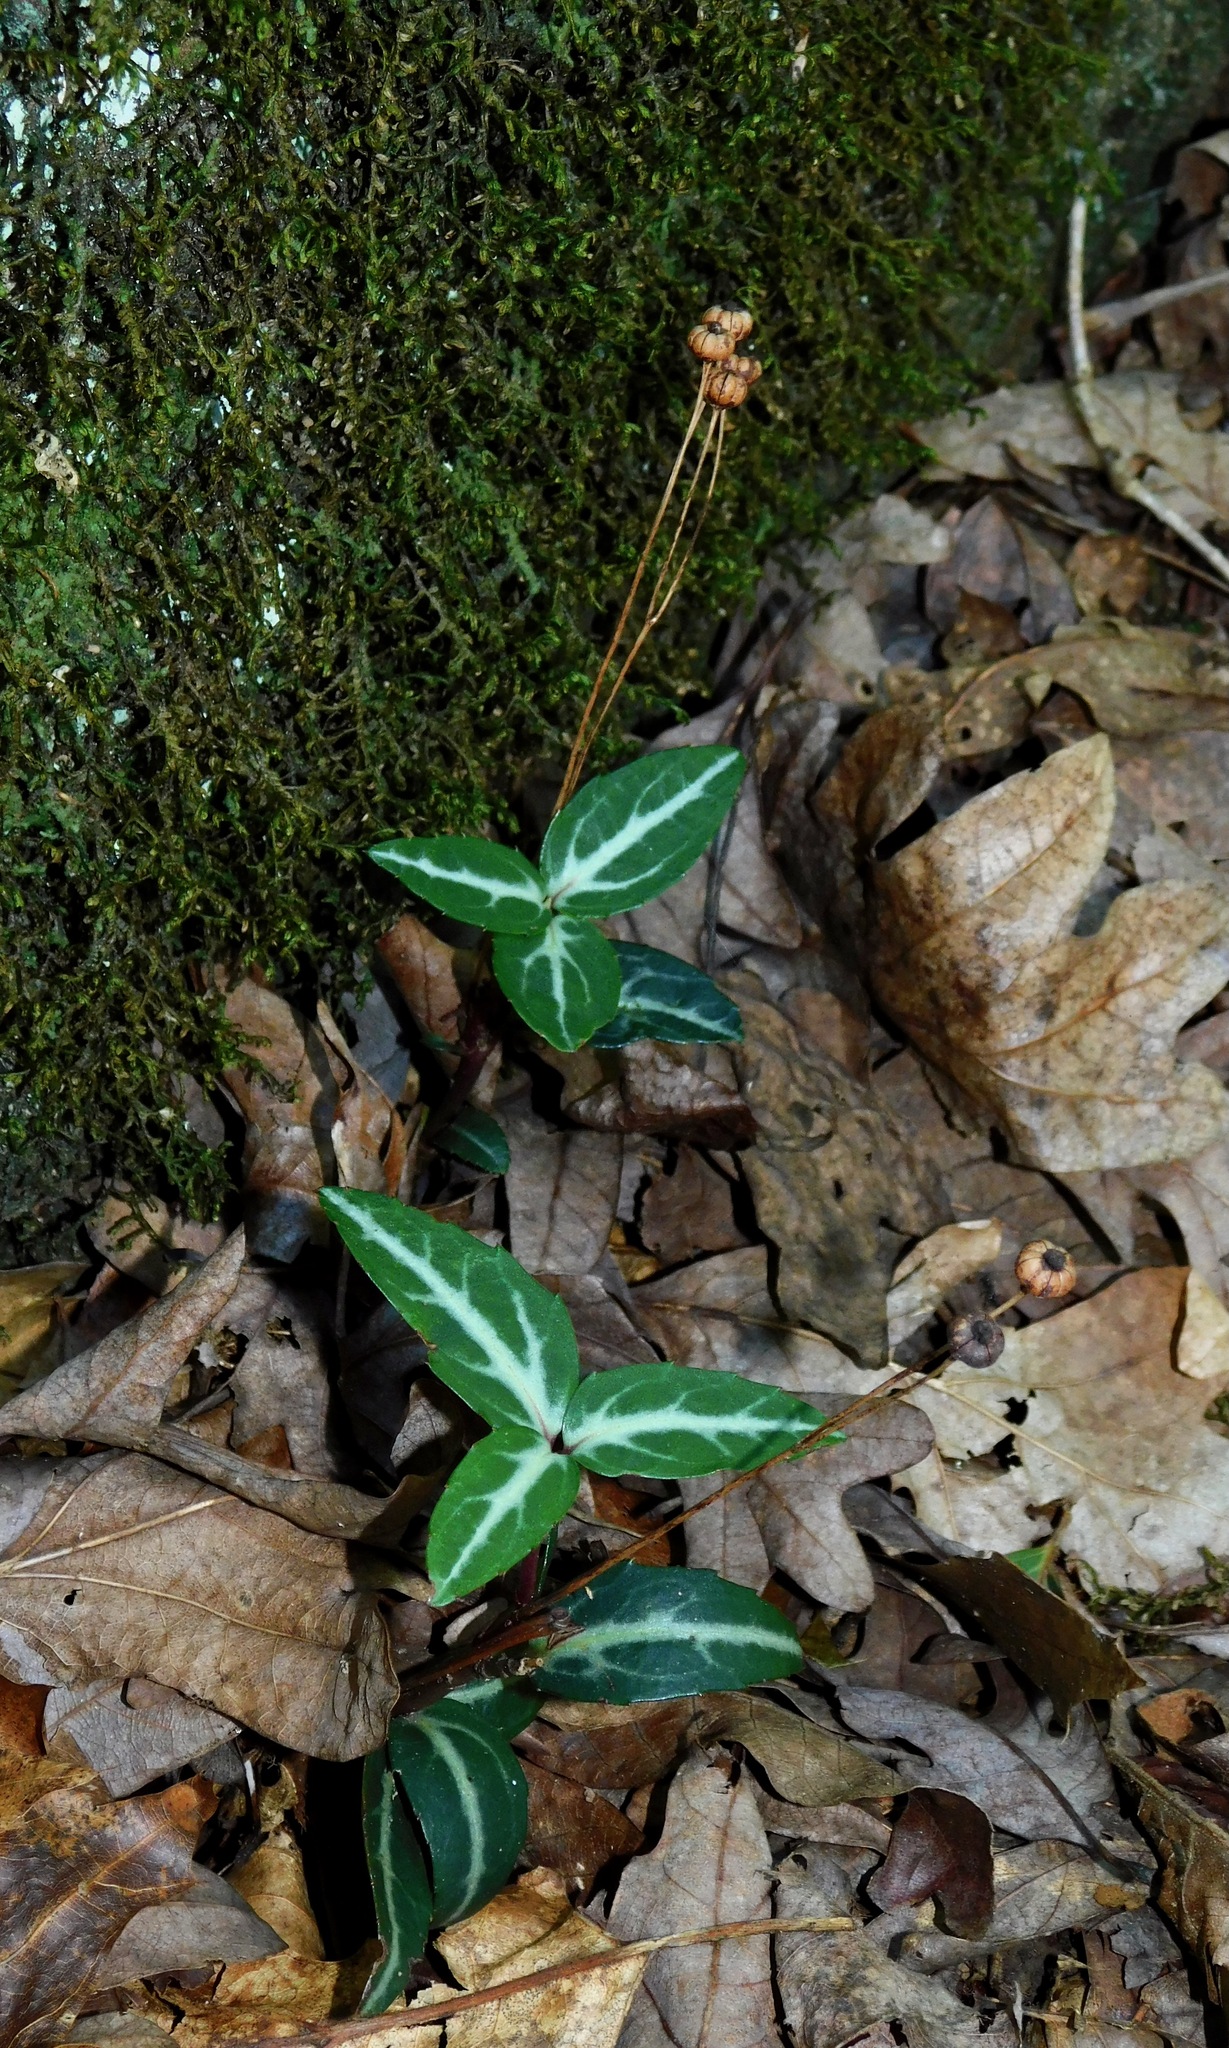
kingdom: Plantae
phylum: Tracheophyta
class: Magnoliopsida
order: Ericales
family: Ericaceae
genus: Chimaphila
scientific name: Chimaphila maculata
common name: Spotted pipsissewa
